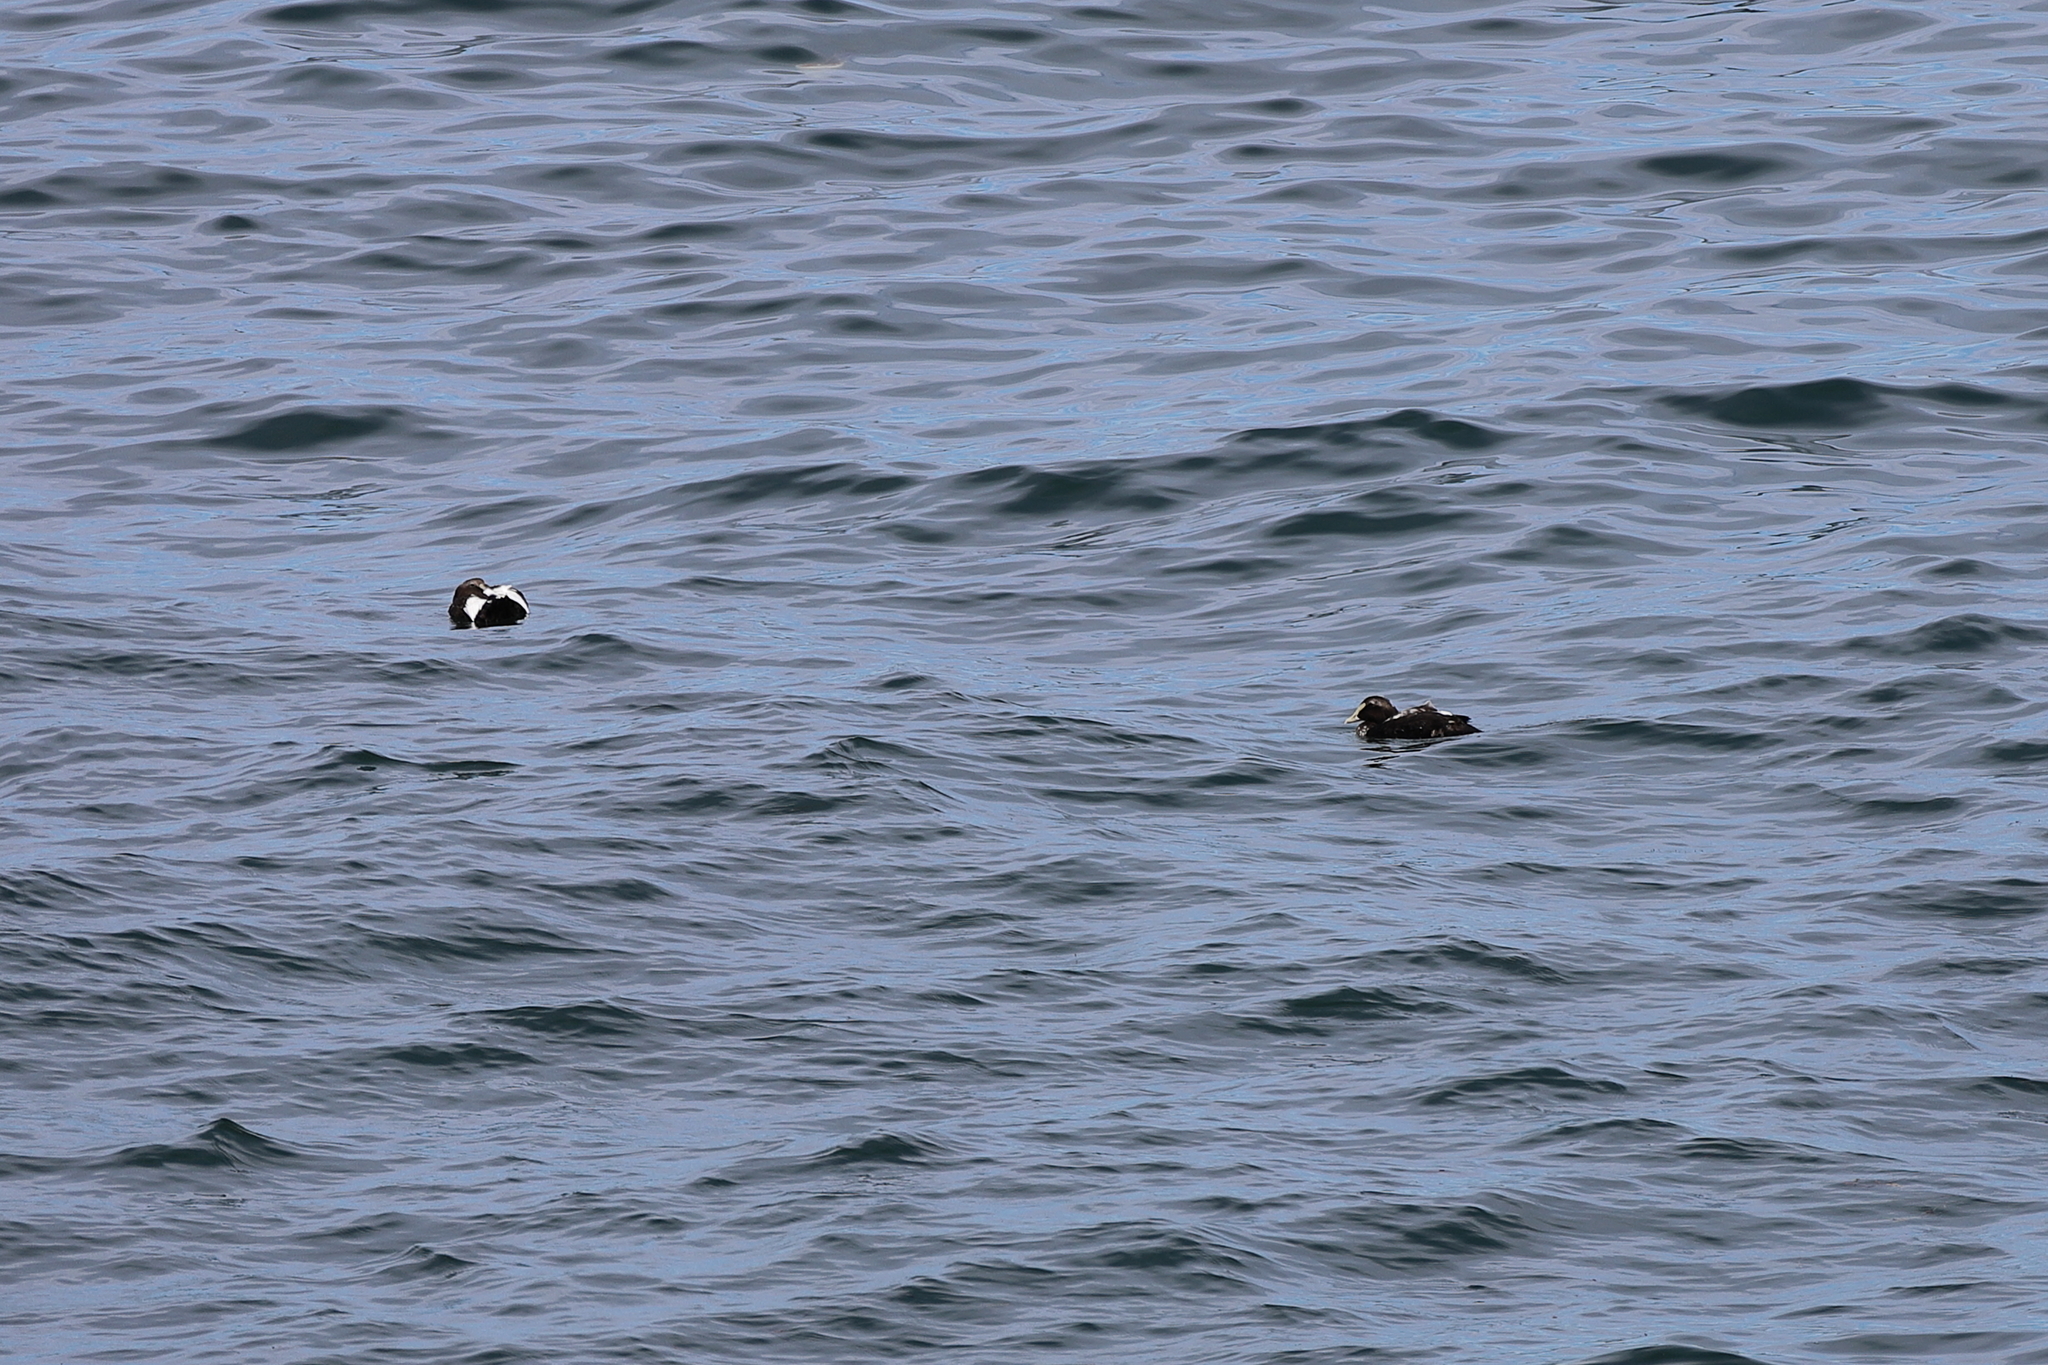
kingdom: Animalia
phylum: Chordata
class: Aves
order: Anseriformes
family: Anatidae
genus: Somateria
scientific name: Somateria mollissima
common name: Common eider
